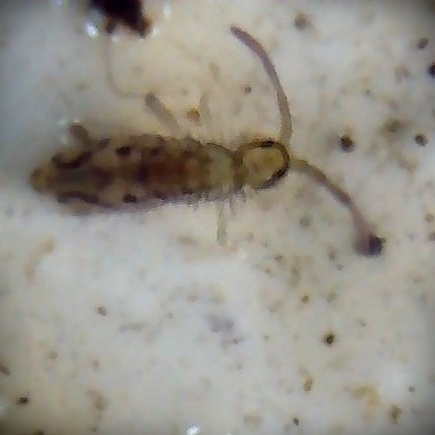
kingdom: Animalia
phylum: Arthropoda
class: Collembola
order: Entomobryomorpha
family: Entomobryidae
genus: Entomobrya
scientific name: Entomobrya intermedia
